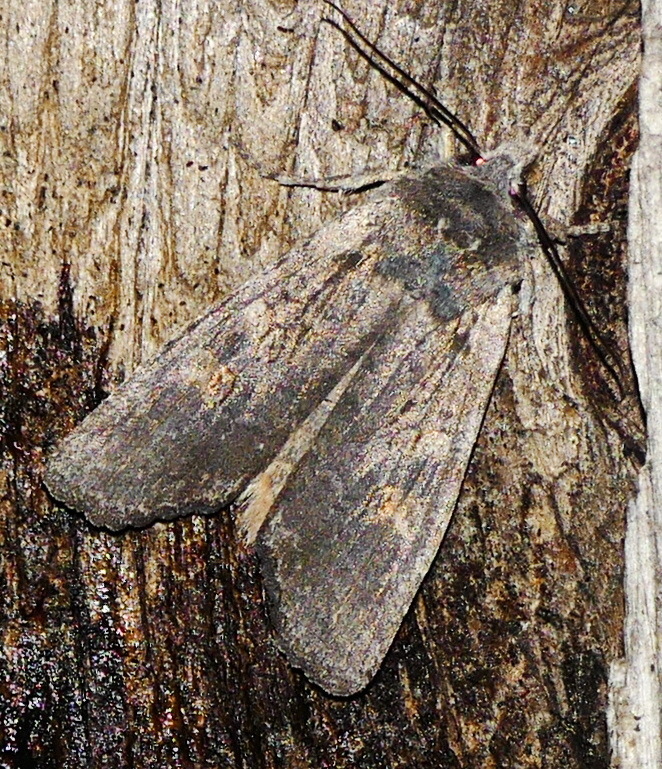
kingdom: Animalia
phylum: Arthropoda
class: Insecta
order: Lepidoptera
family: Noctuidae
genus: Lithophane
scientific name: Lithophane laticinerea
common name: Broad ashen pinion
